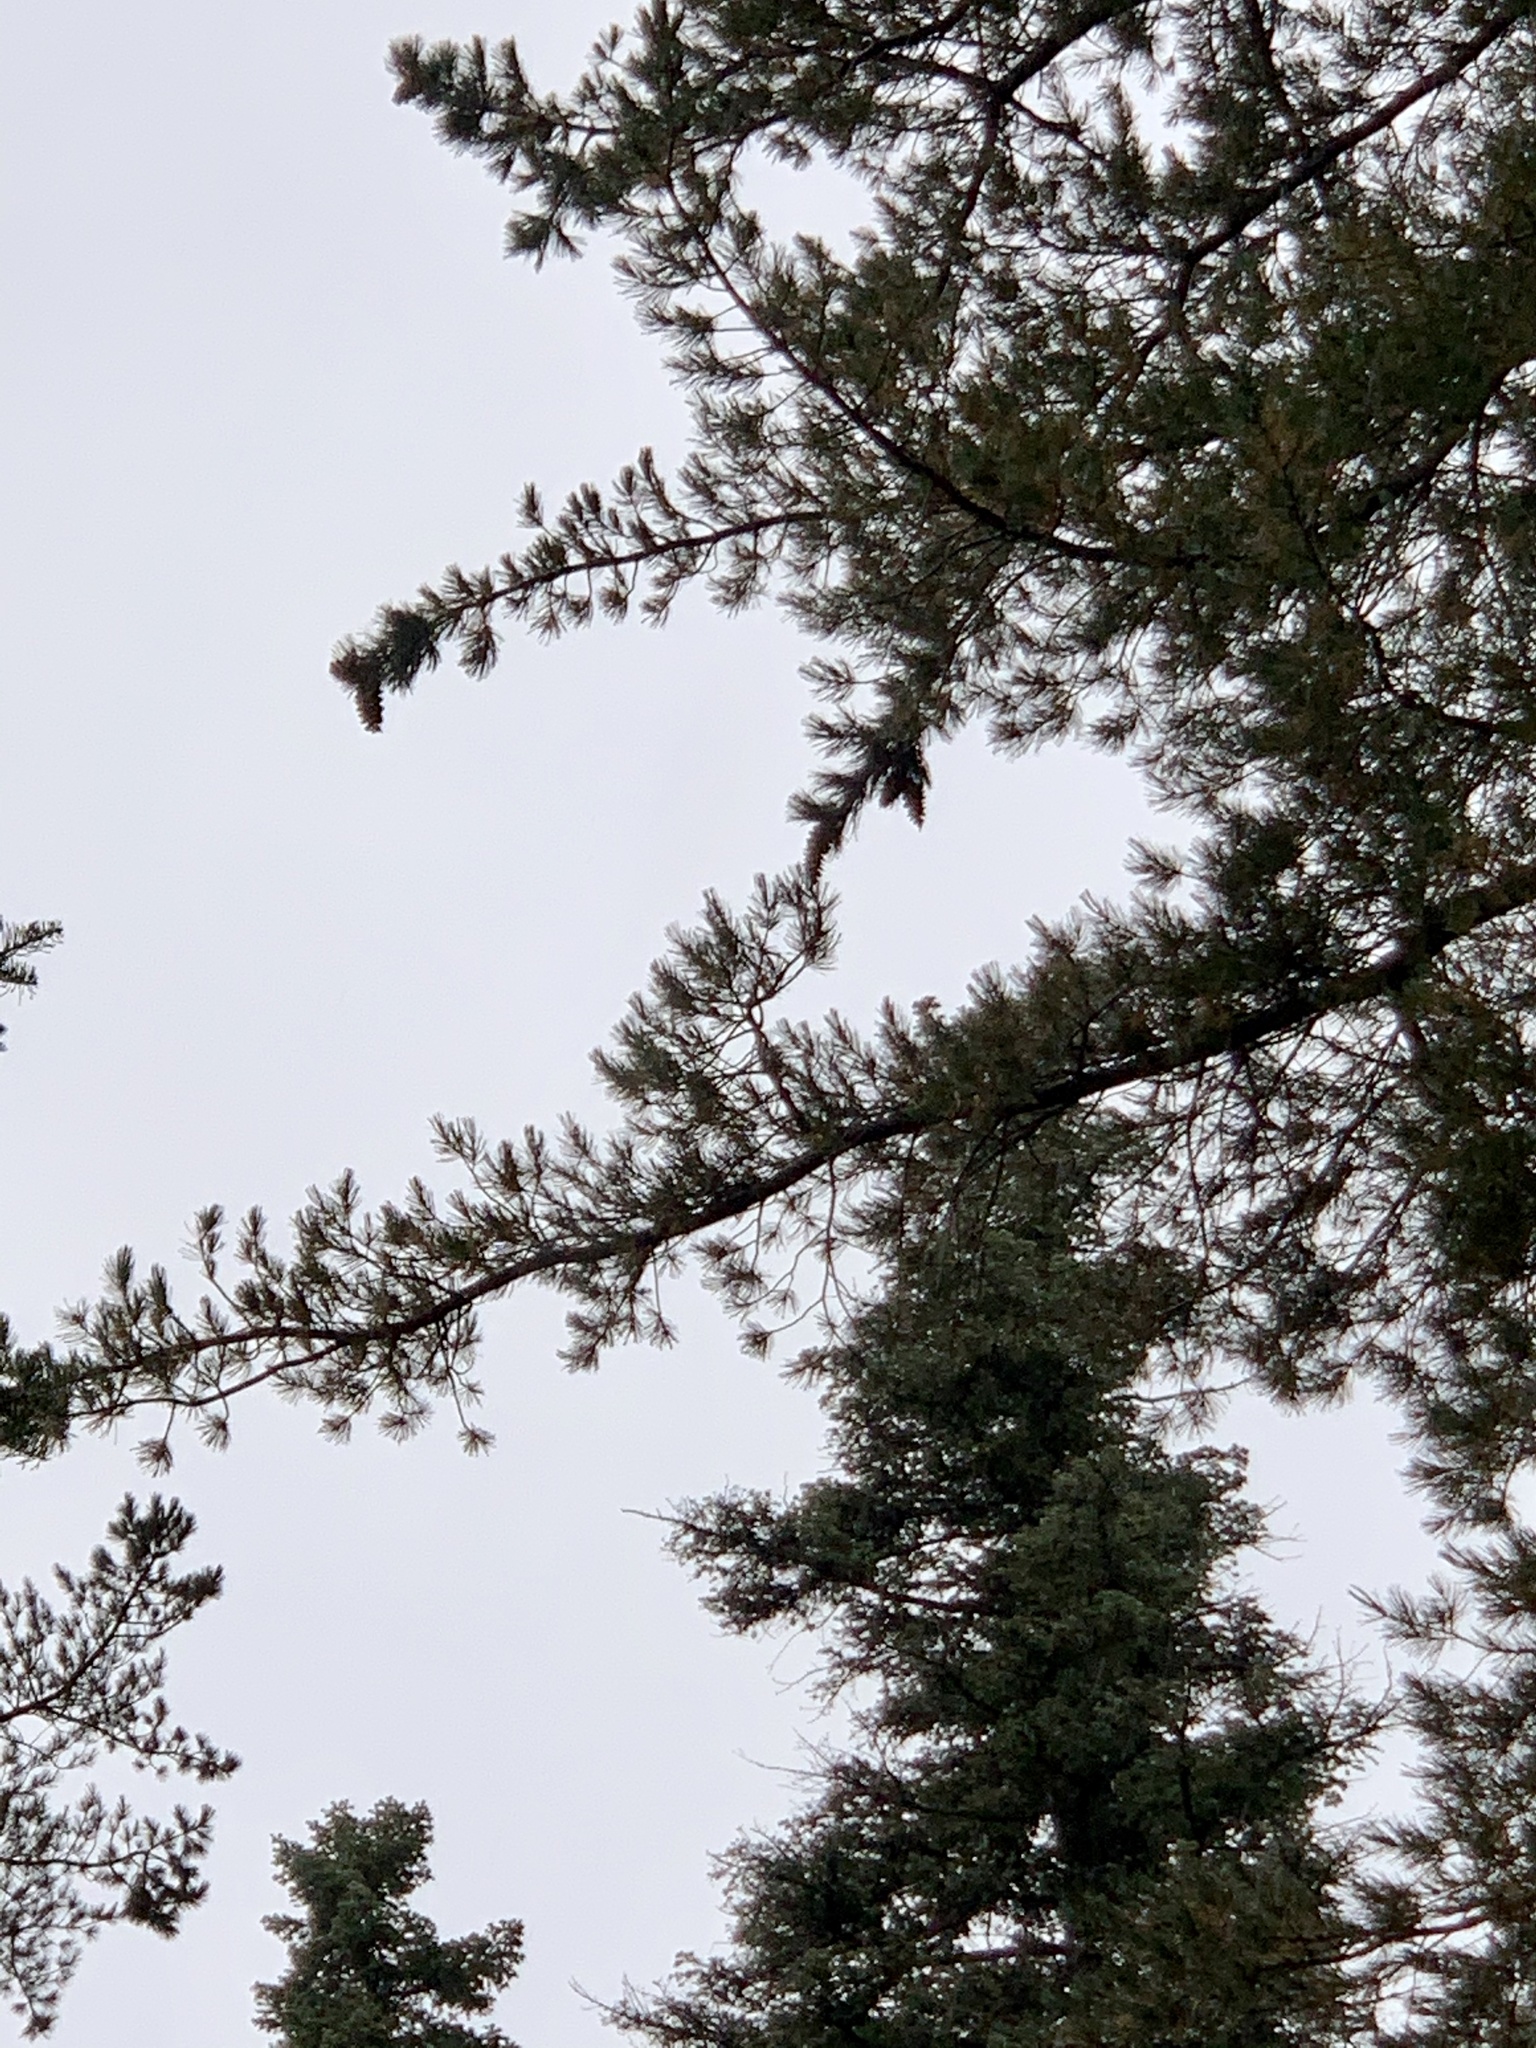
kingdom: Plantae
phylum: Tracheophyta
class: Pinopsida
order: Pinales
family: Pinaceae
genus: Pinus
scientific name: Pinus strobiformis
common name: Southwestern white pine
